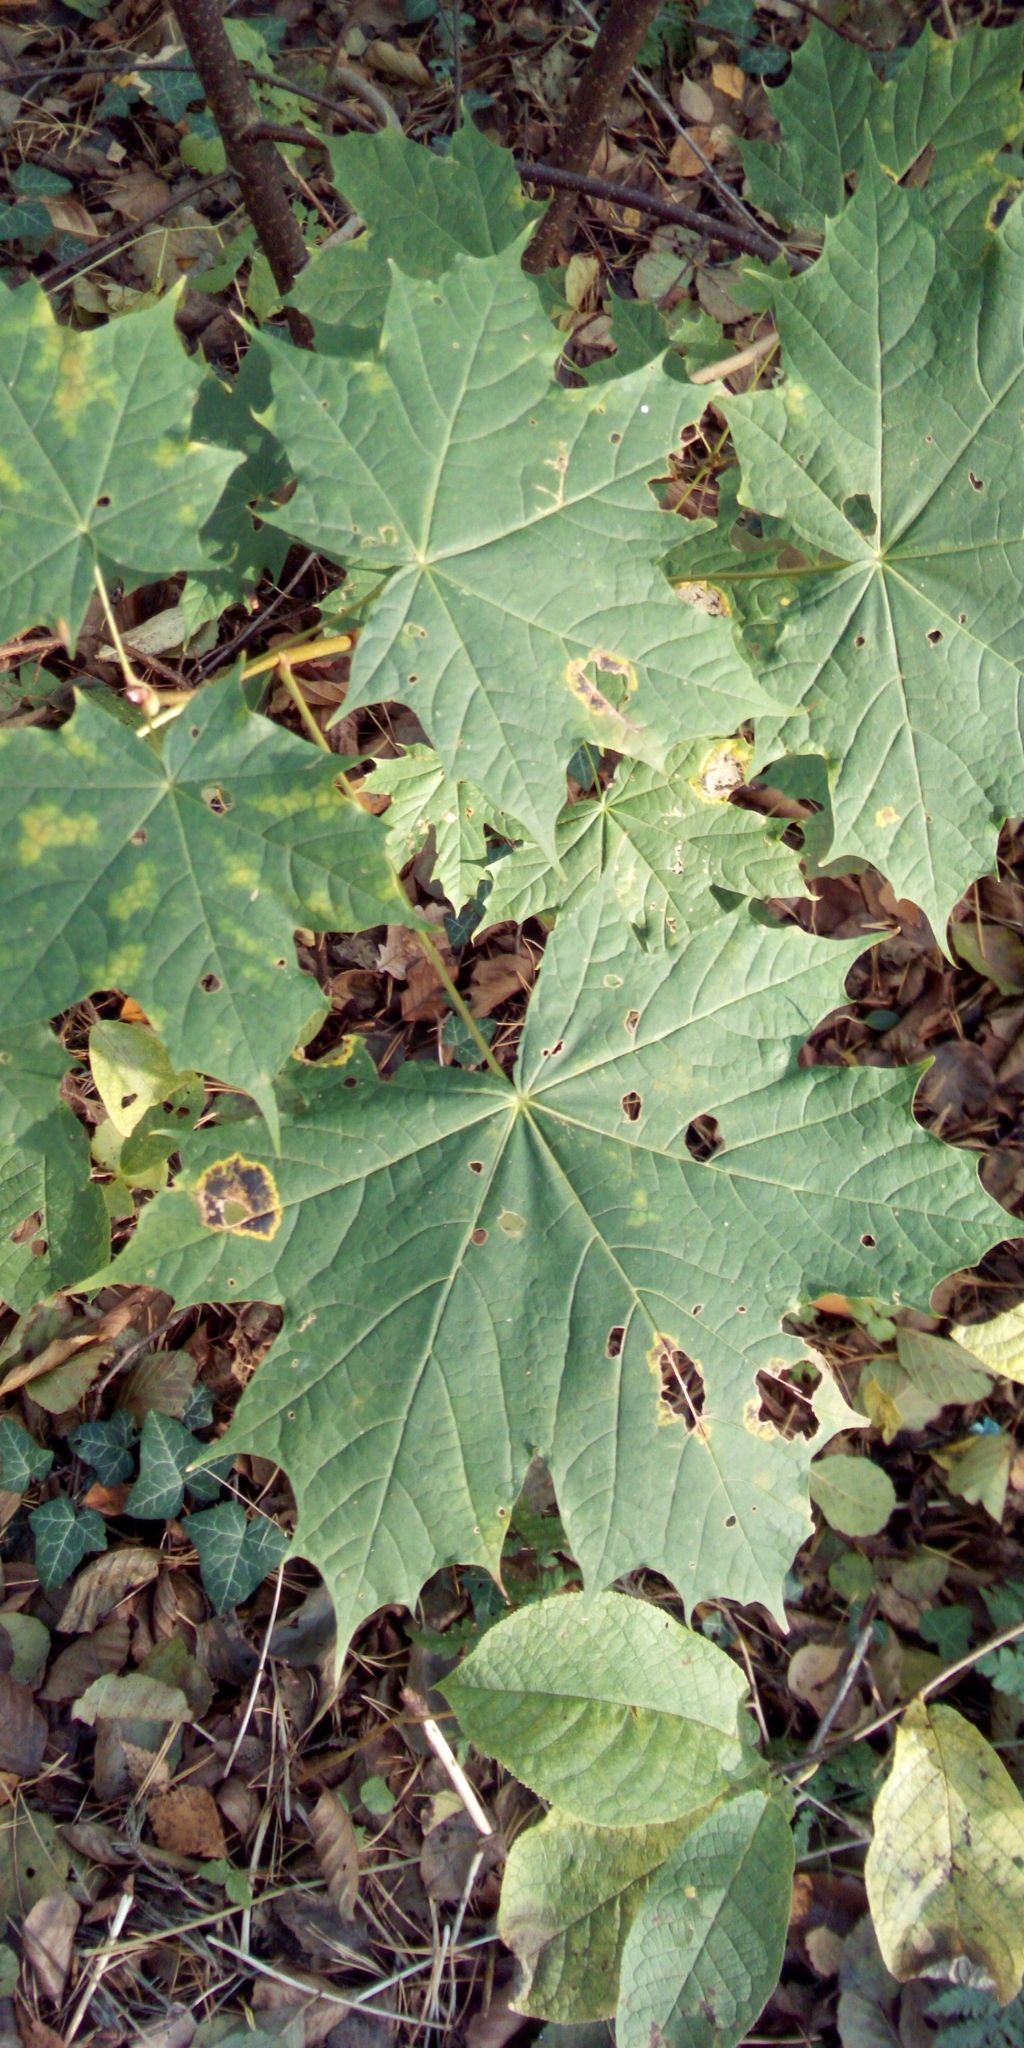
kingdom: Fungi
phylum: Ascomycota
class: Leotiomycetes
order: Rhytismatales
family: Rhytismataceae
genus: Rhytisma
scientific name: Rhytisma acerinum
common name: European tar spot
